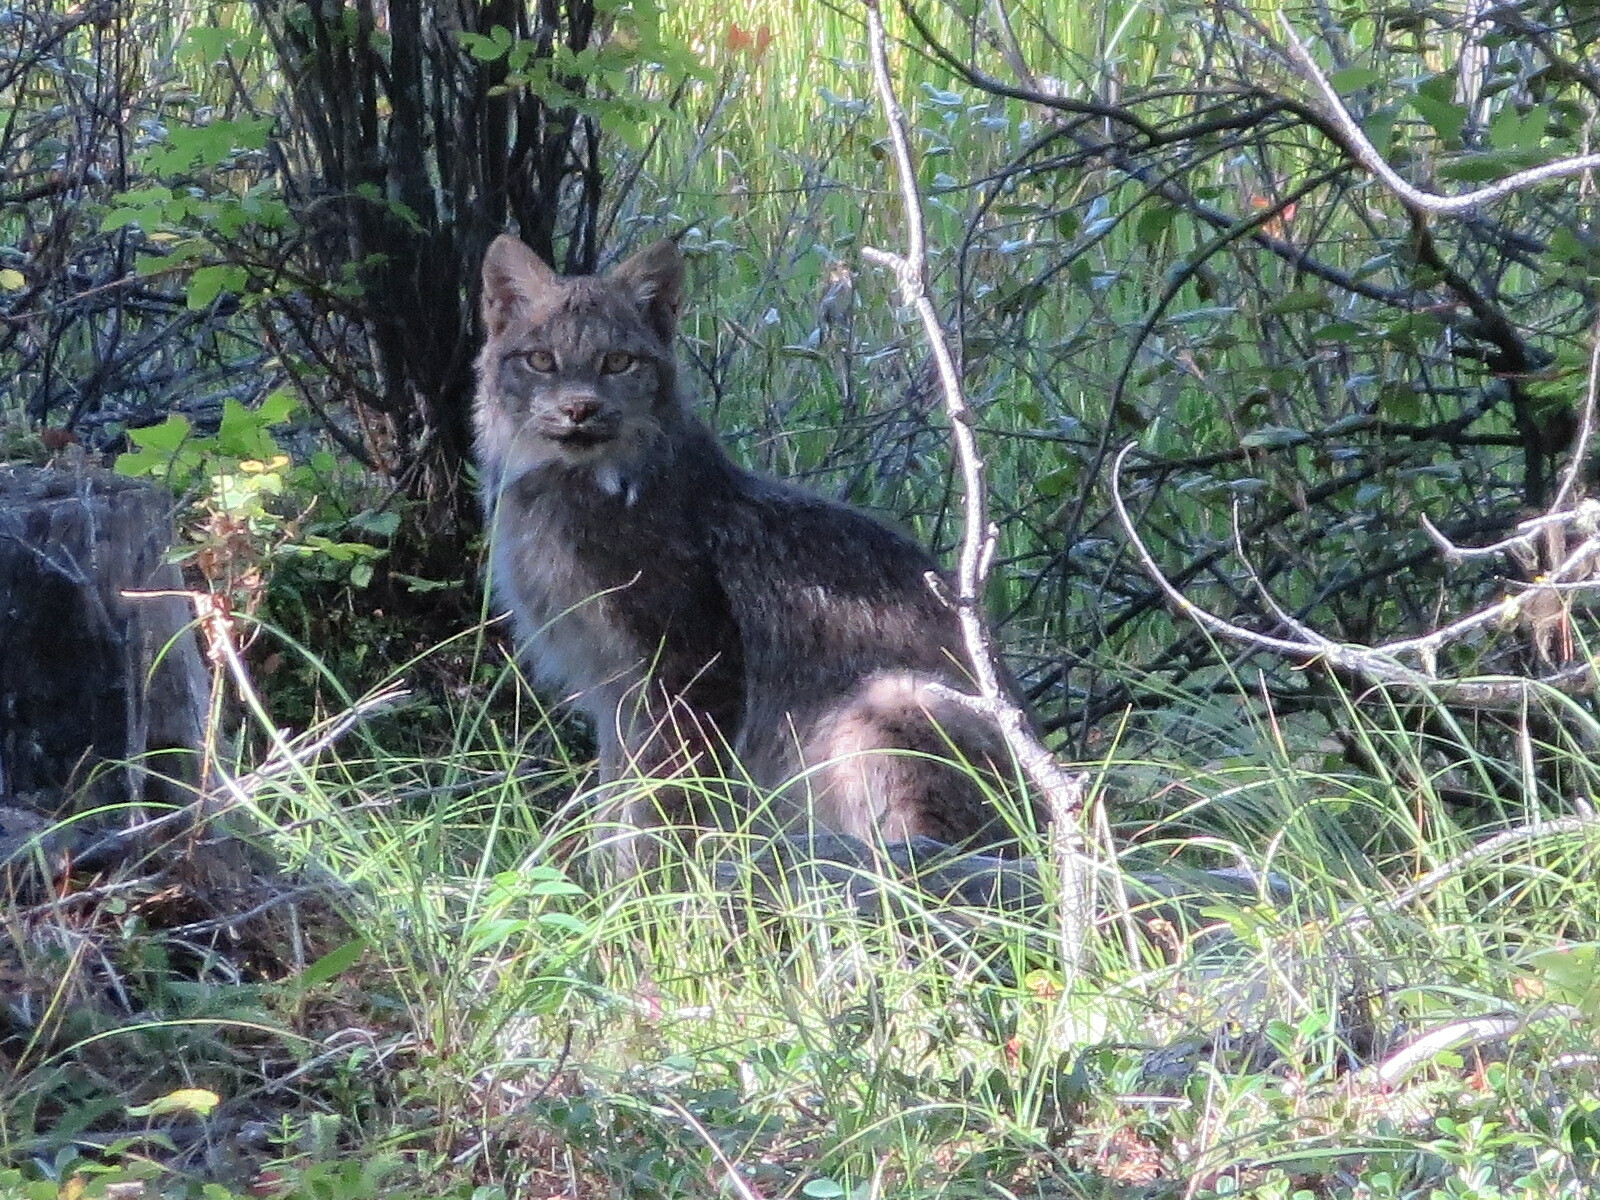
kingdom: Animalia
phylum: Chordata
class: Mammalia
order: Carnivora
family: Felidae
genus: Lynx
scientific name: Lynx canadensis
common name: Canadian lynx
